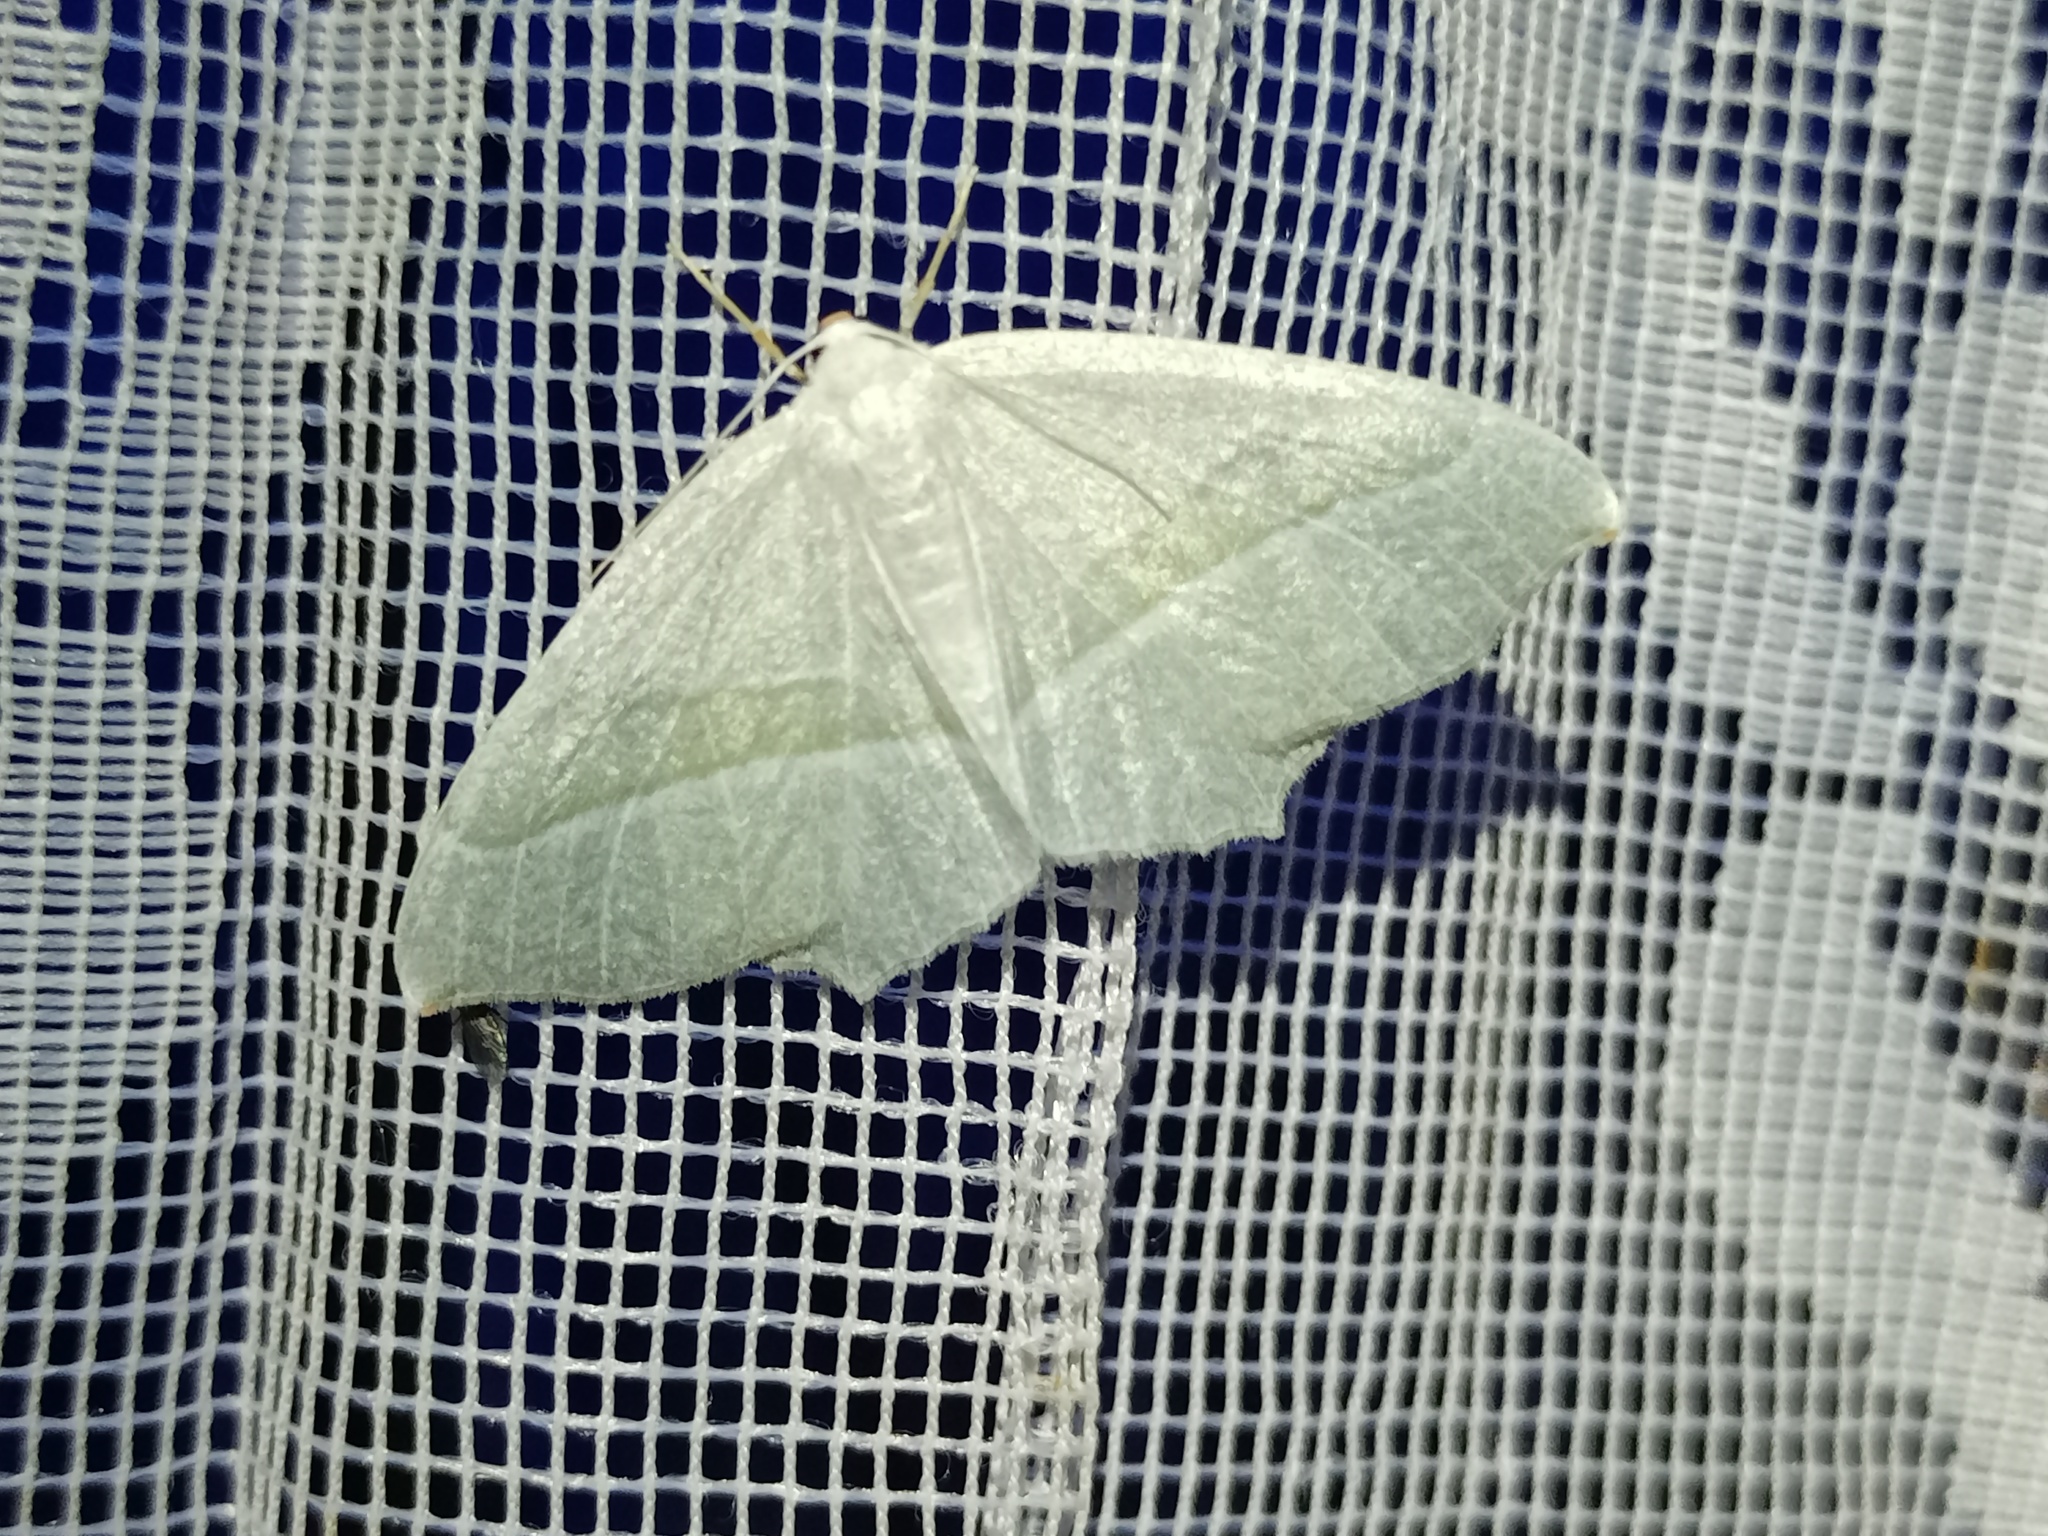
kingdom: Animalia
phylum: Arthropoda
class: Insecta
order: Lepidoptera
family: Geometridae
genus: Campaea
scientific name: Campaea margaritaria
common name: Light emerald
